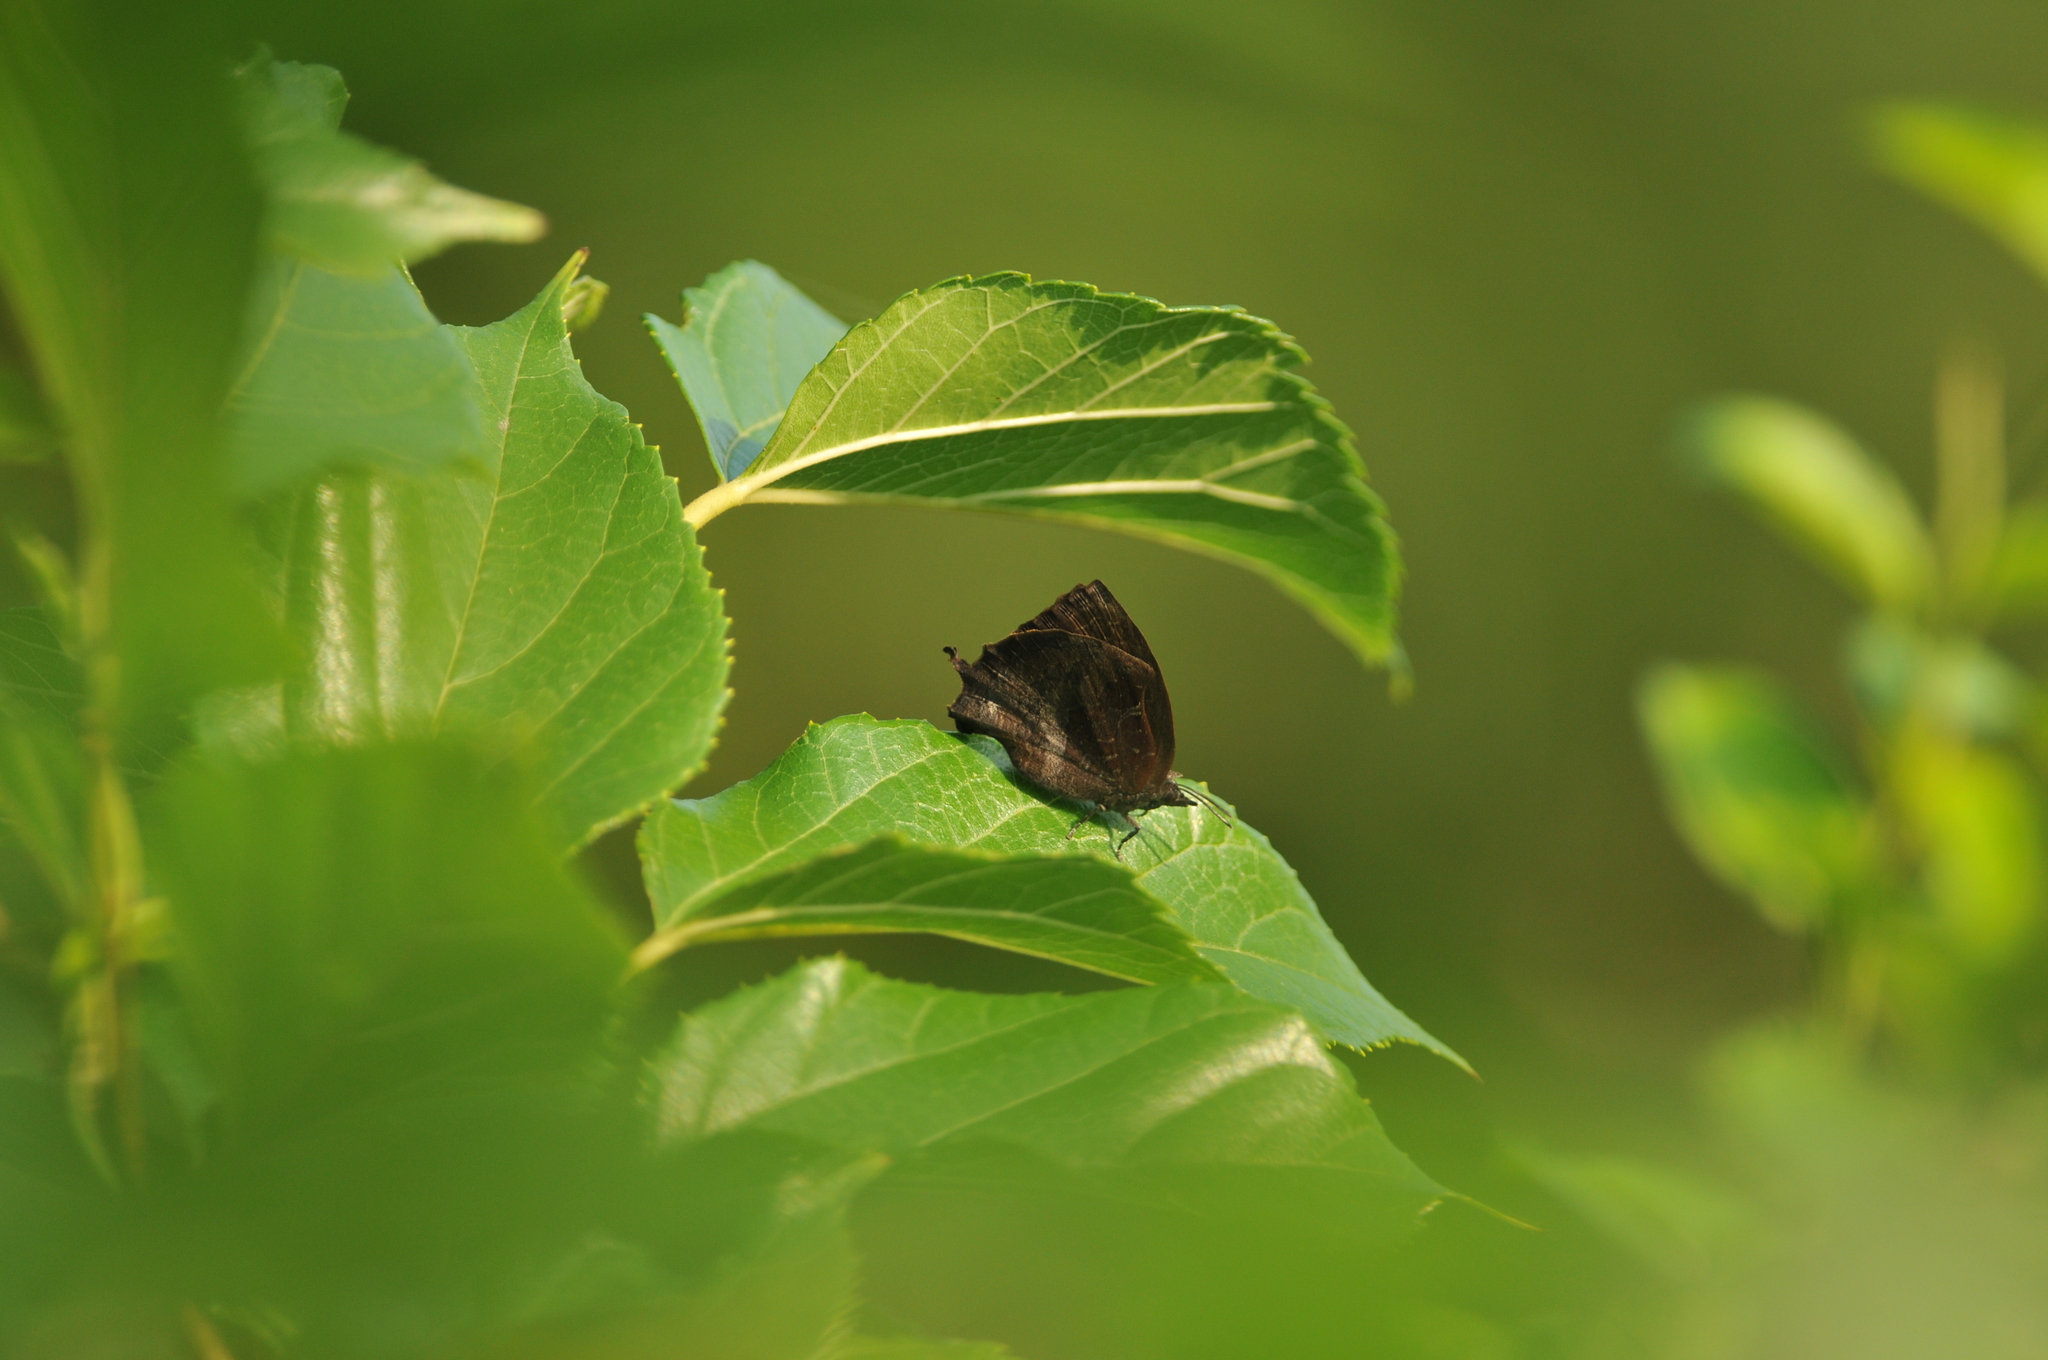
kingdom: Animalia
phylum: Arthropoda
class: Insecta
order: Lepidoptera
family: Lycaenidae
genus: Mahathala
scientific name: Mahathala ameria
